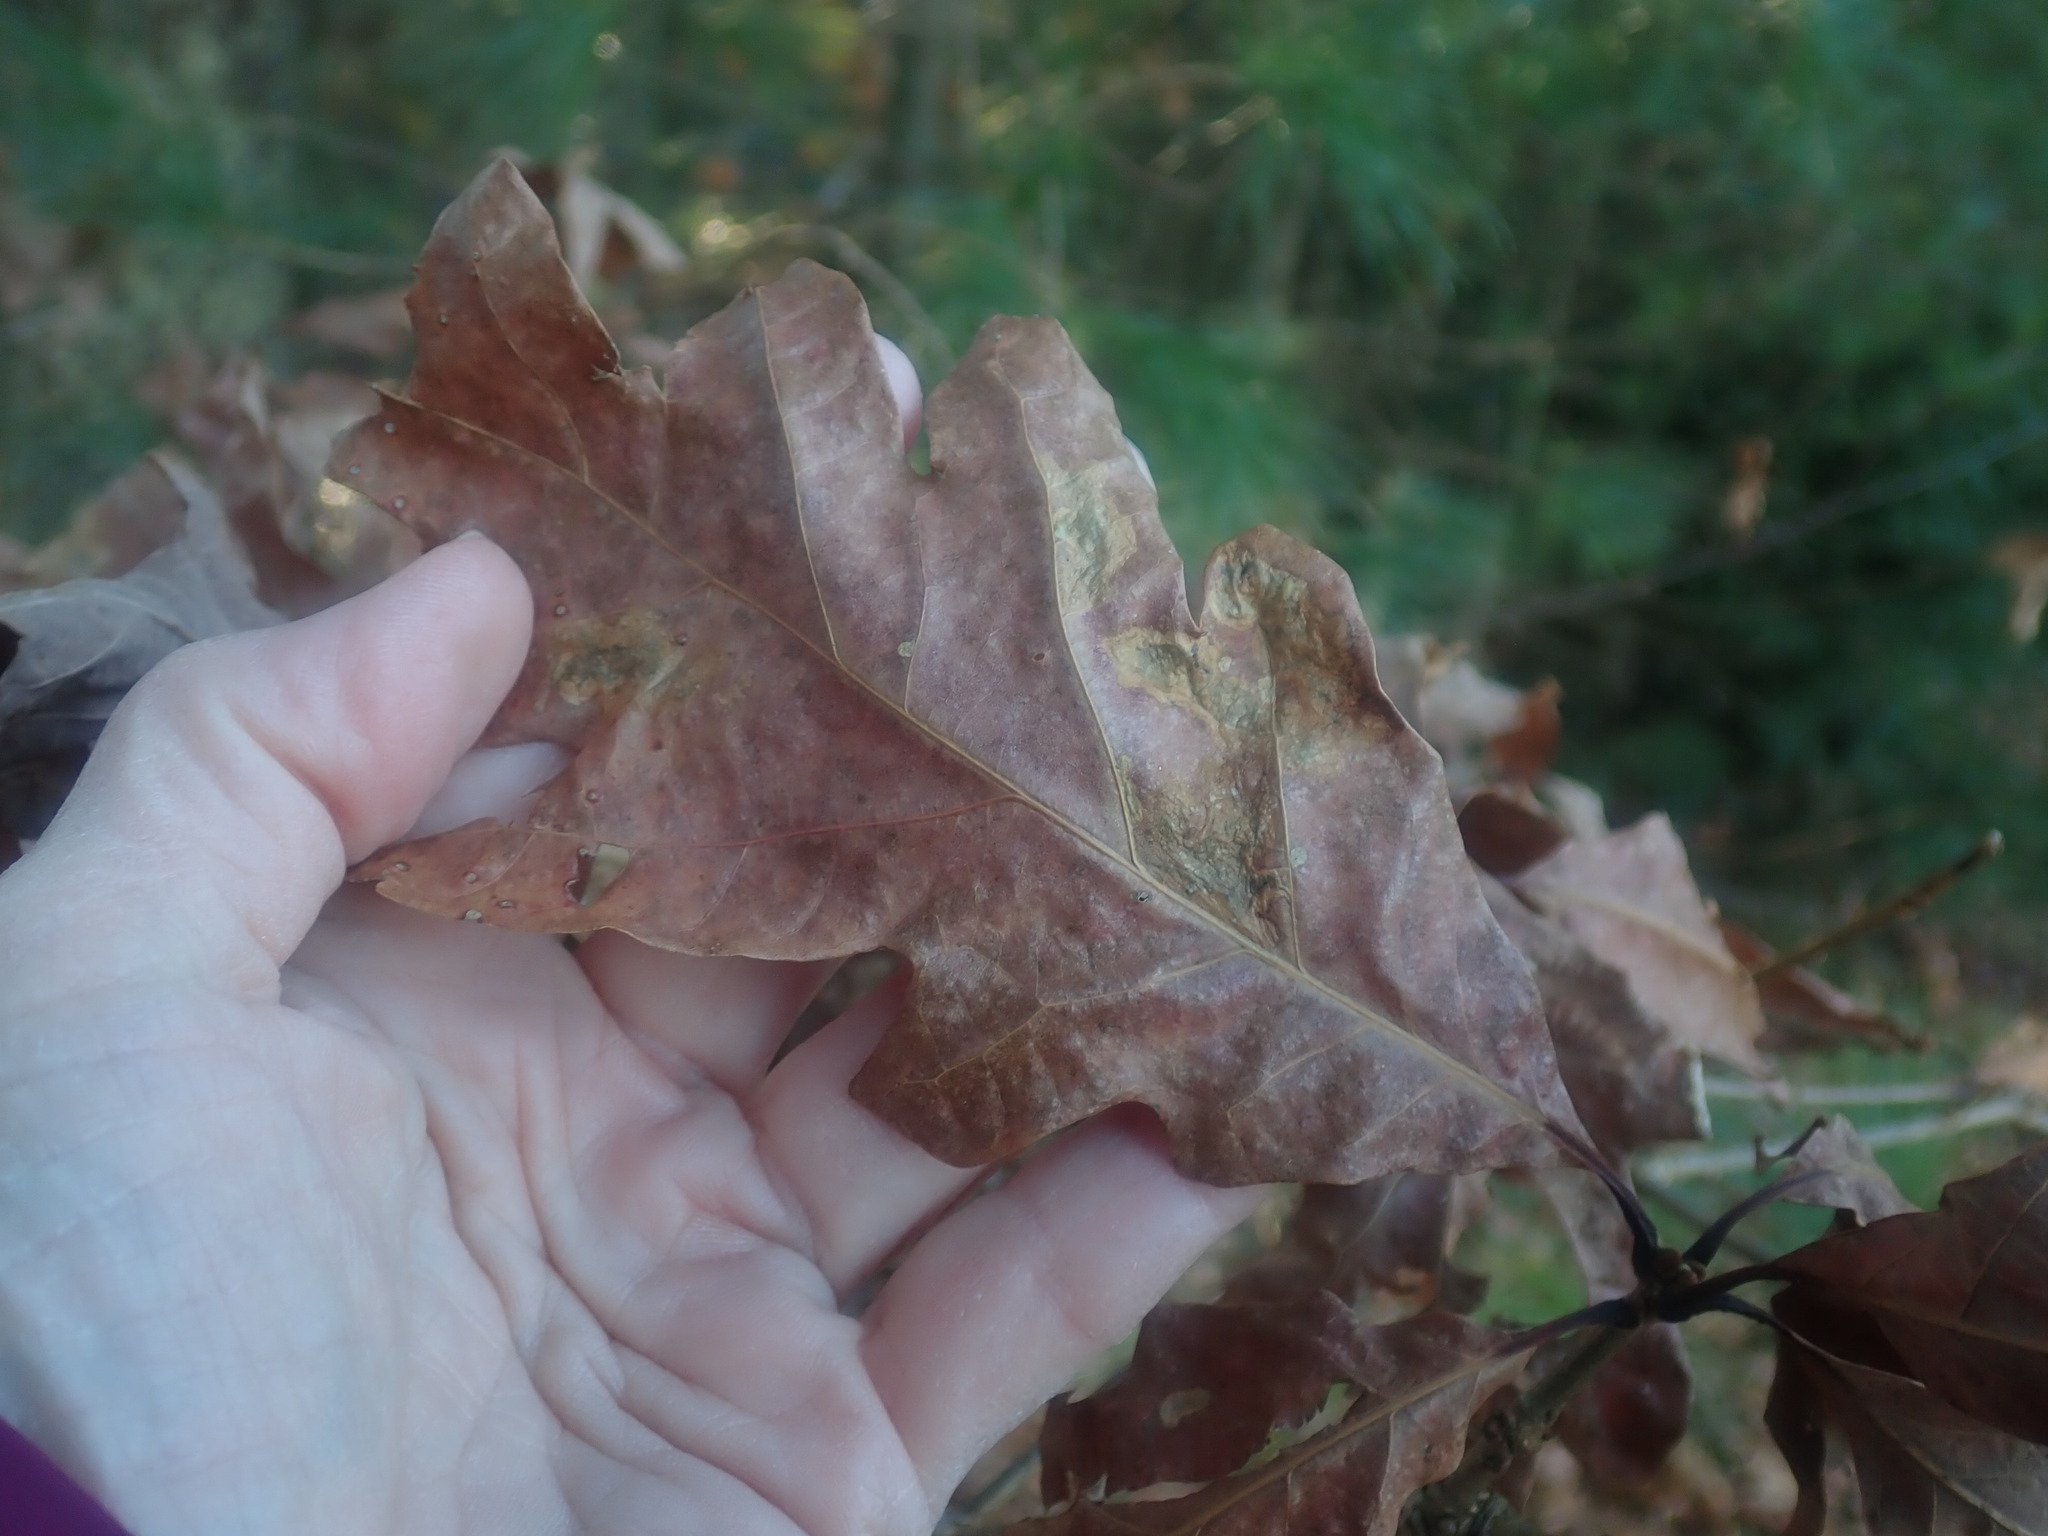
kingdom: Plantae
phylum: Tracheophyta
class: Magnoliopsida
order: Fagales
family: Fagaceae
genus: Quercus
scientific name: Quercus alba
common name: White oak
